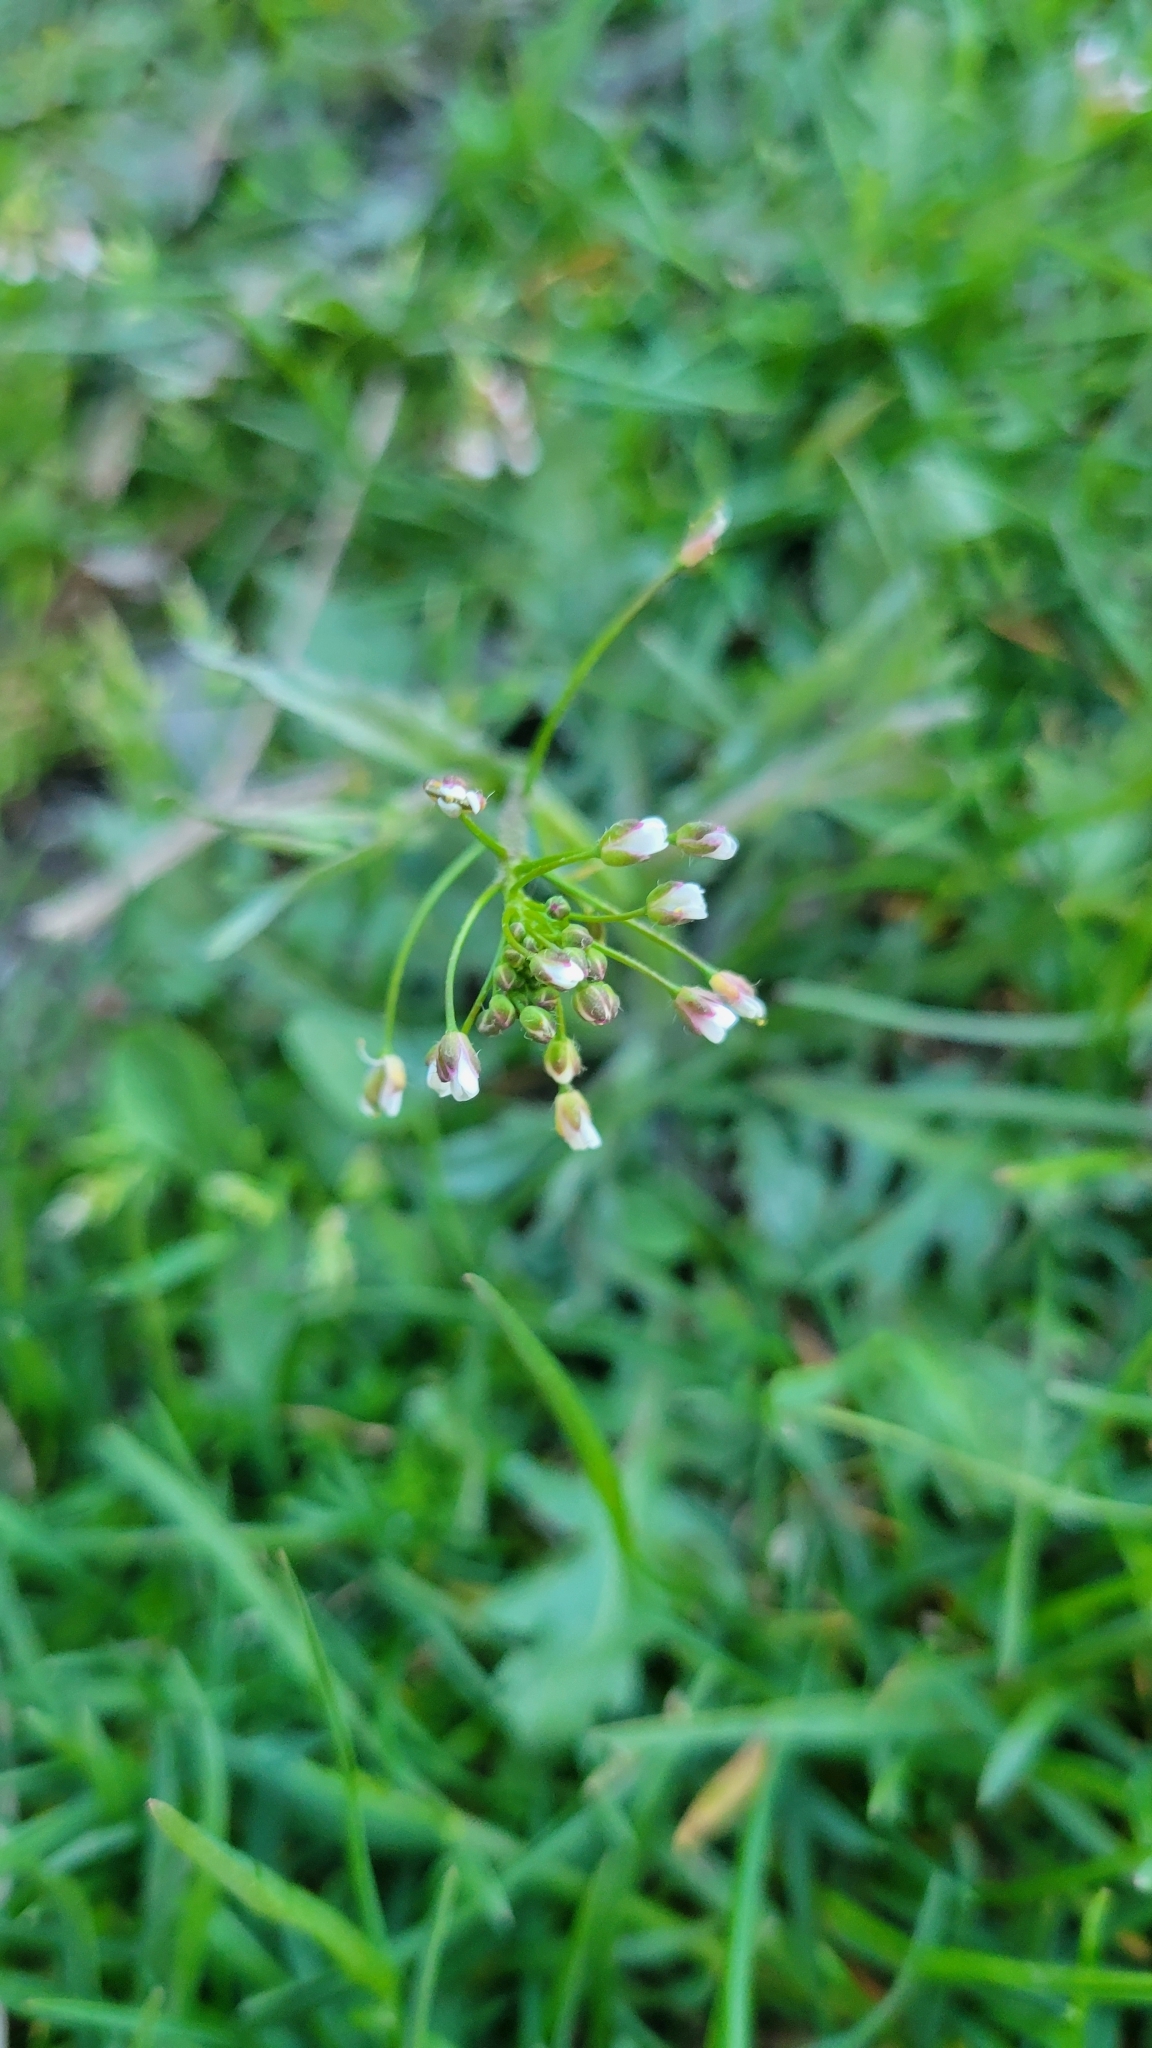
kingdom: Plantae
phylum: Tracheophyta
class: Magnoliopsida
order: Brassicales
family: Brassicaceae
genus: Capsella
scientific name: Capsella bursa-pastoris
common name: Shepherd's purse
